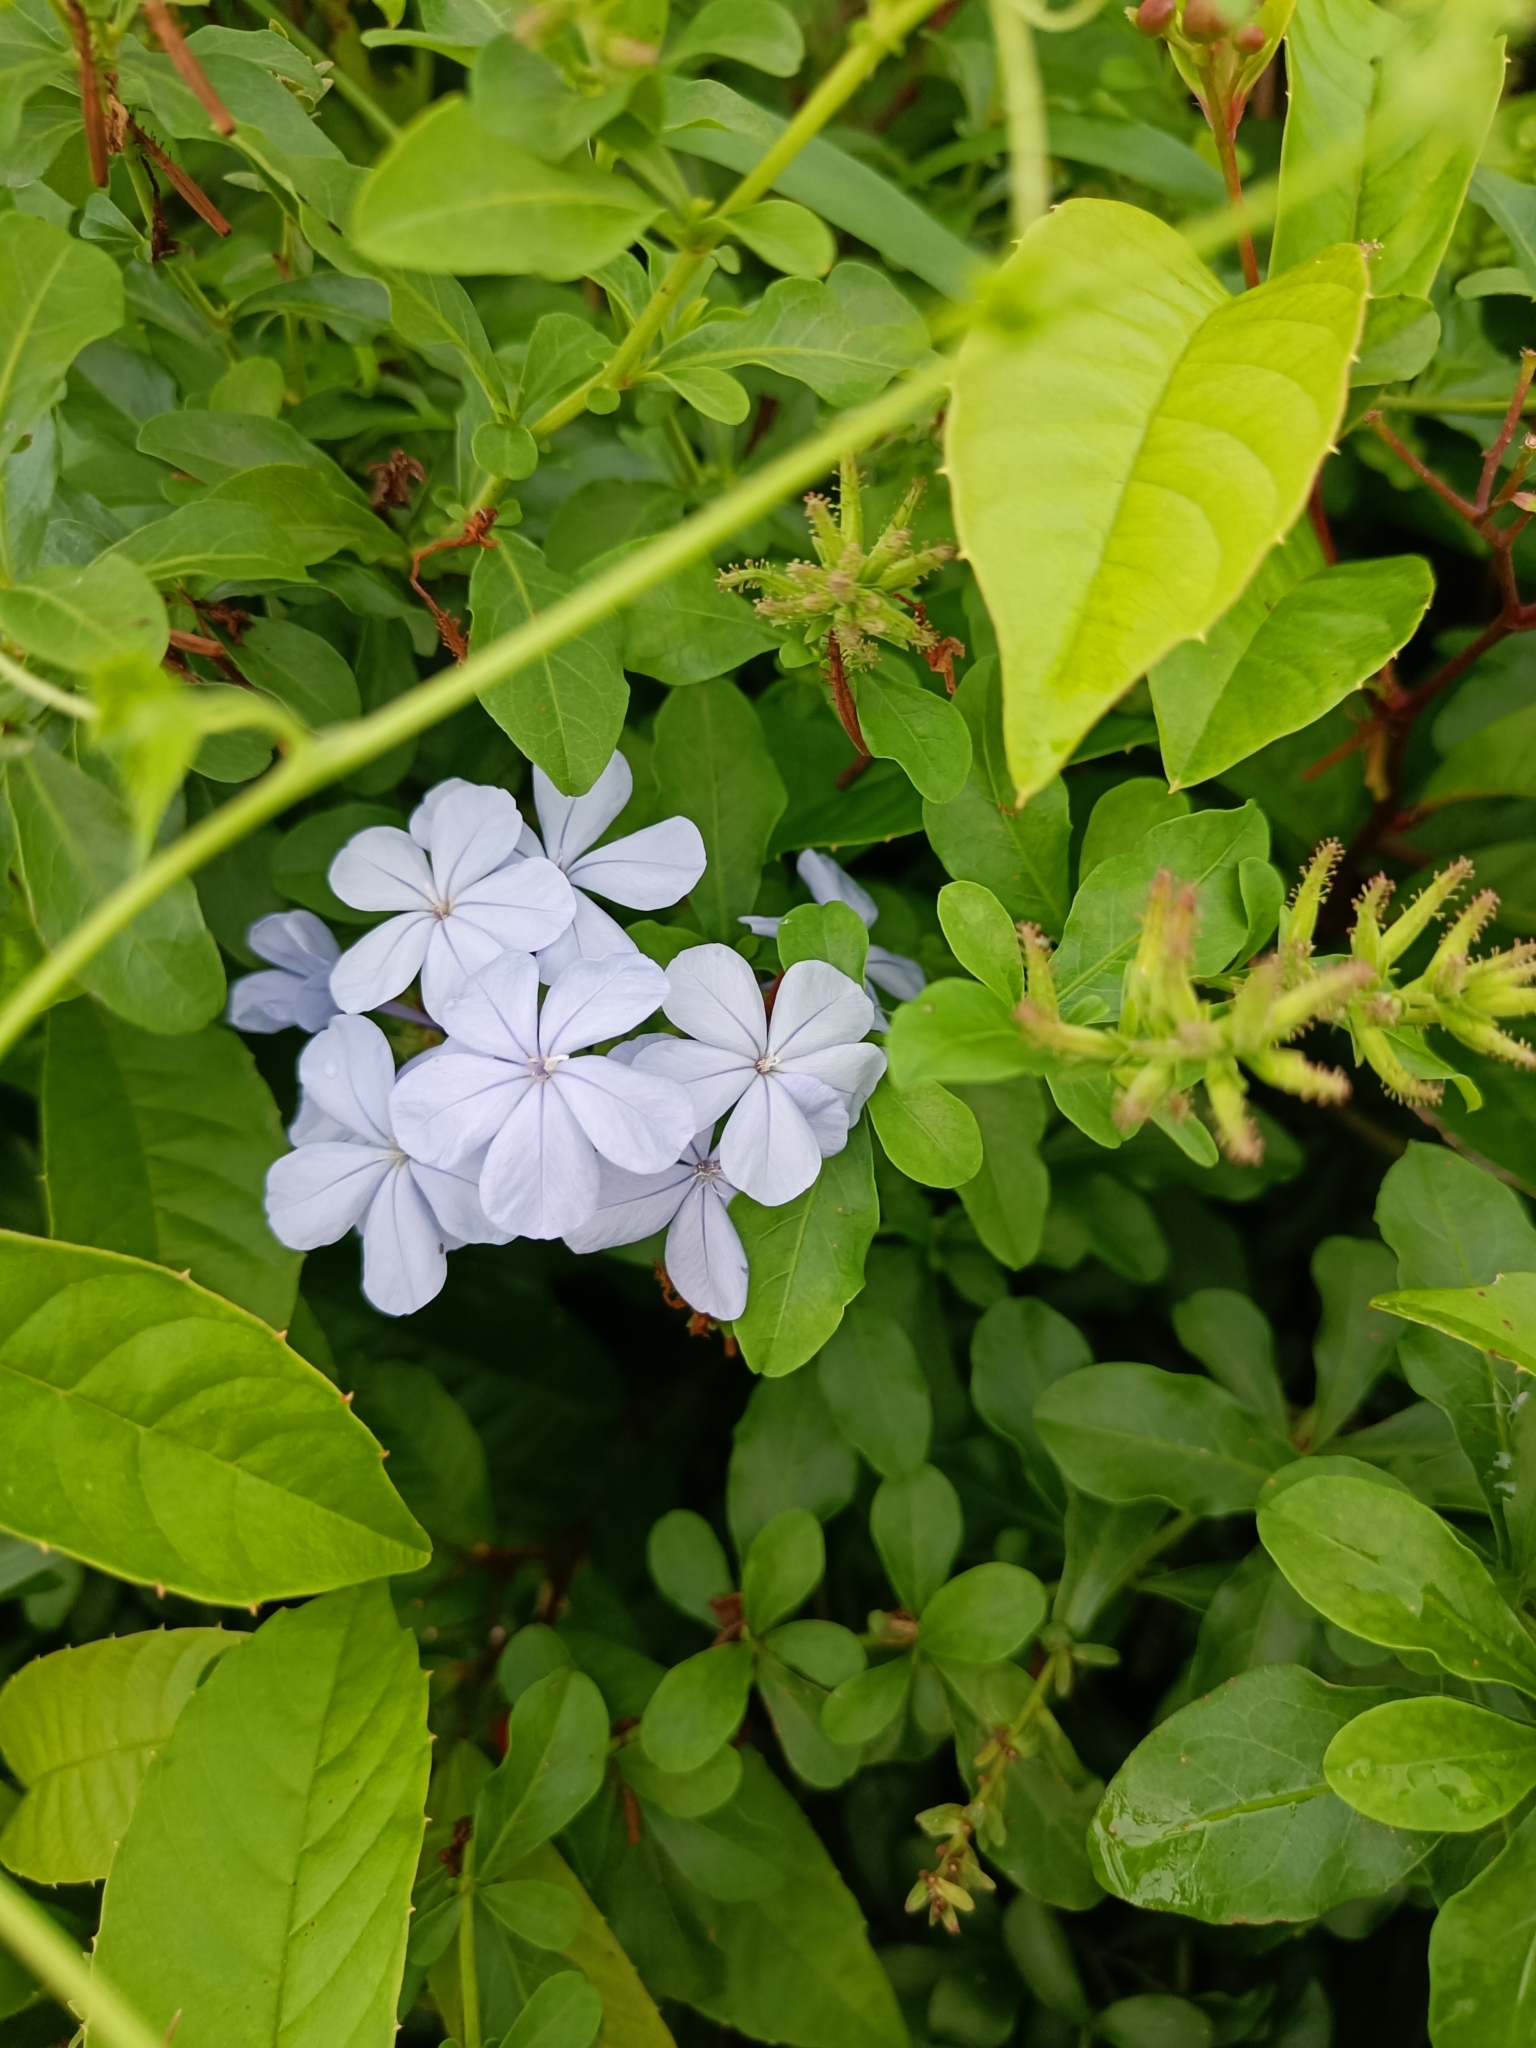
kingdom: Plantae
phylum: Tracheophyta
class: Magnoliopsida
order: Caryophyllales
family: Plumbaginaceae
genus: Plumbago
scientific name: Plumbago auriculata
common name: Cape leadwort
